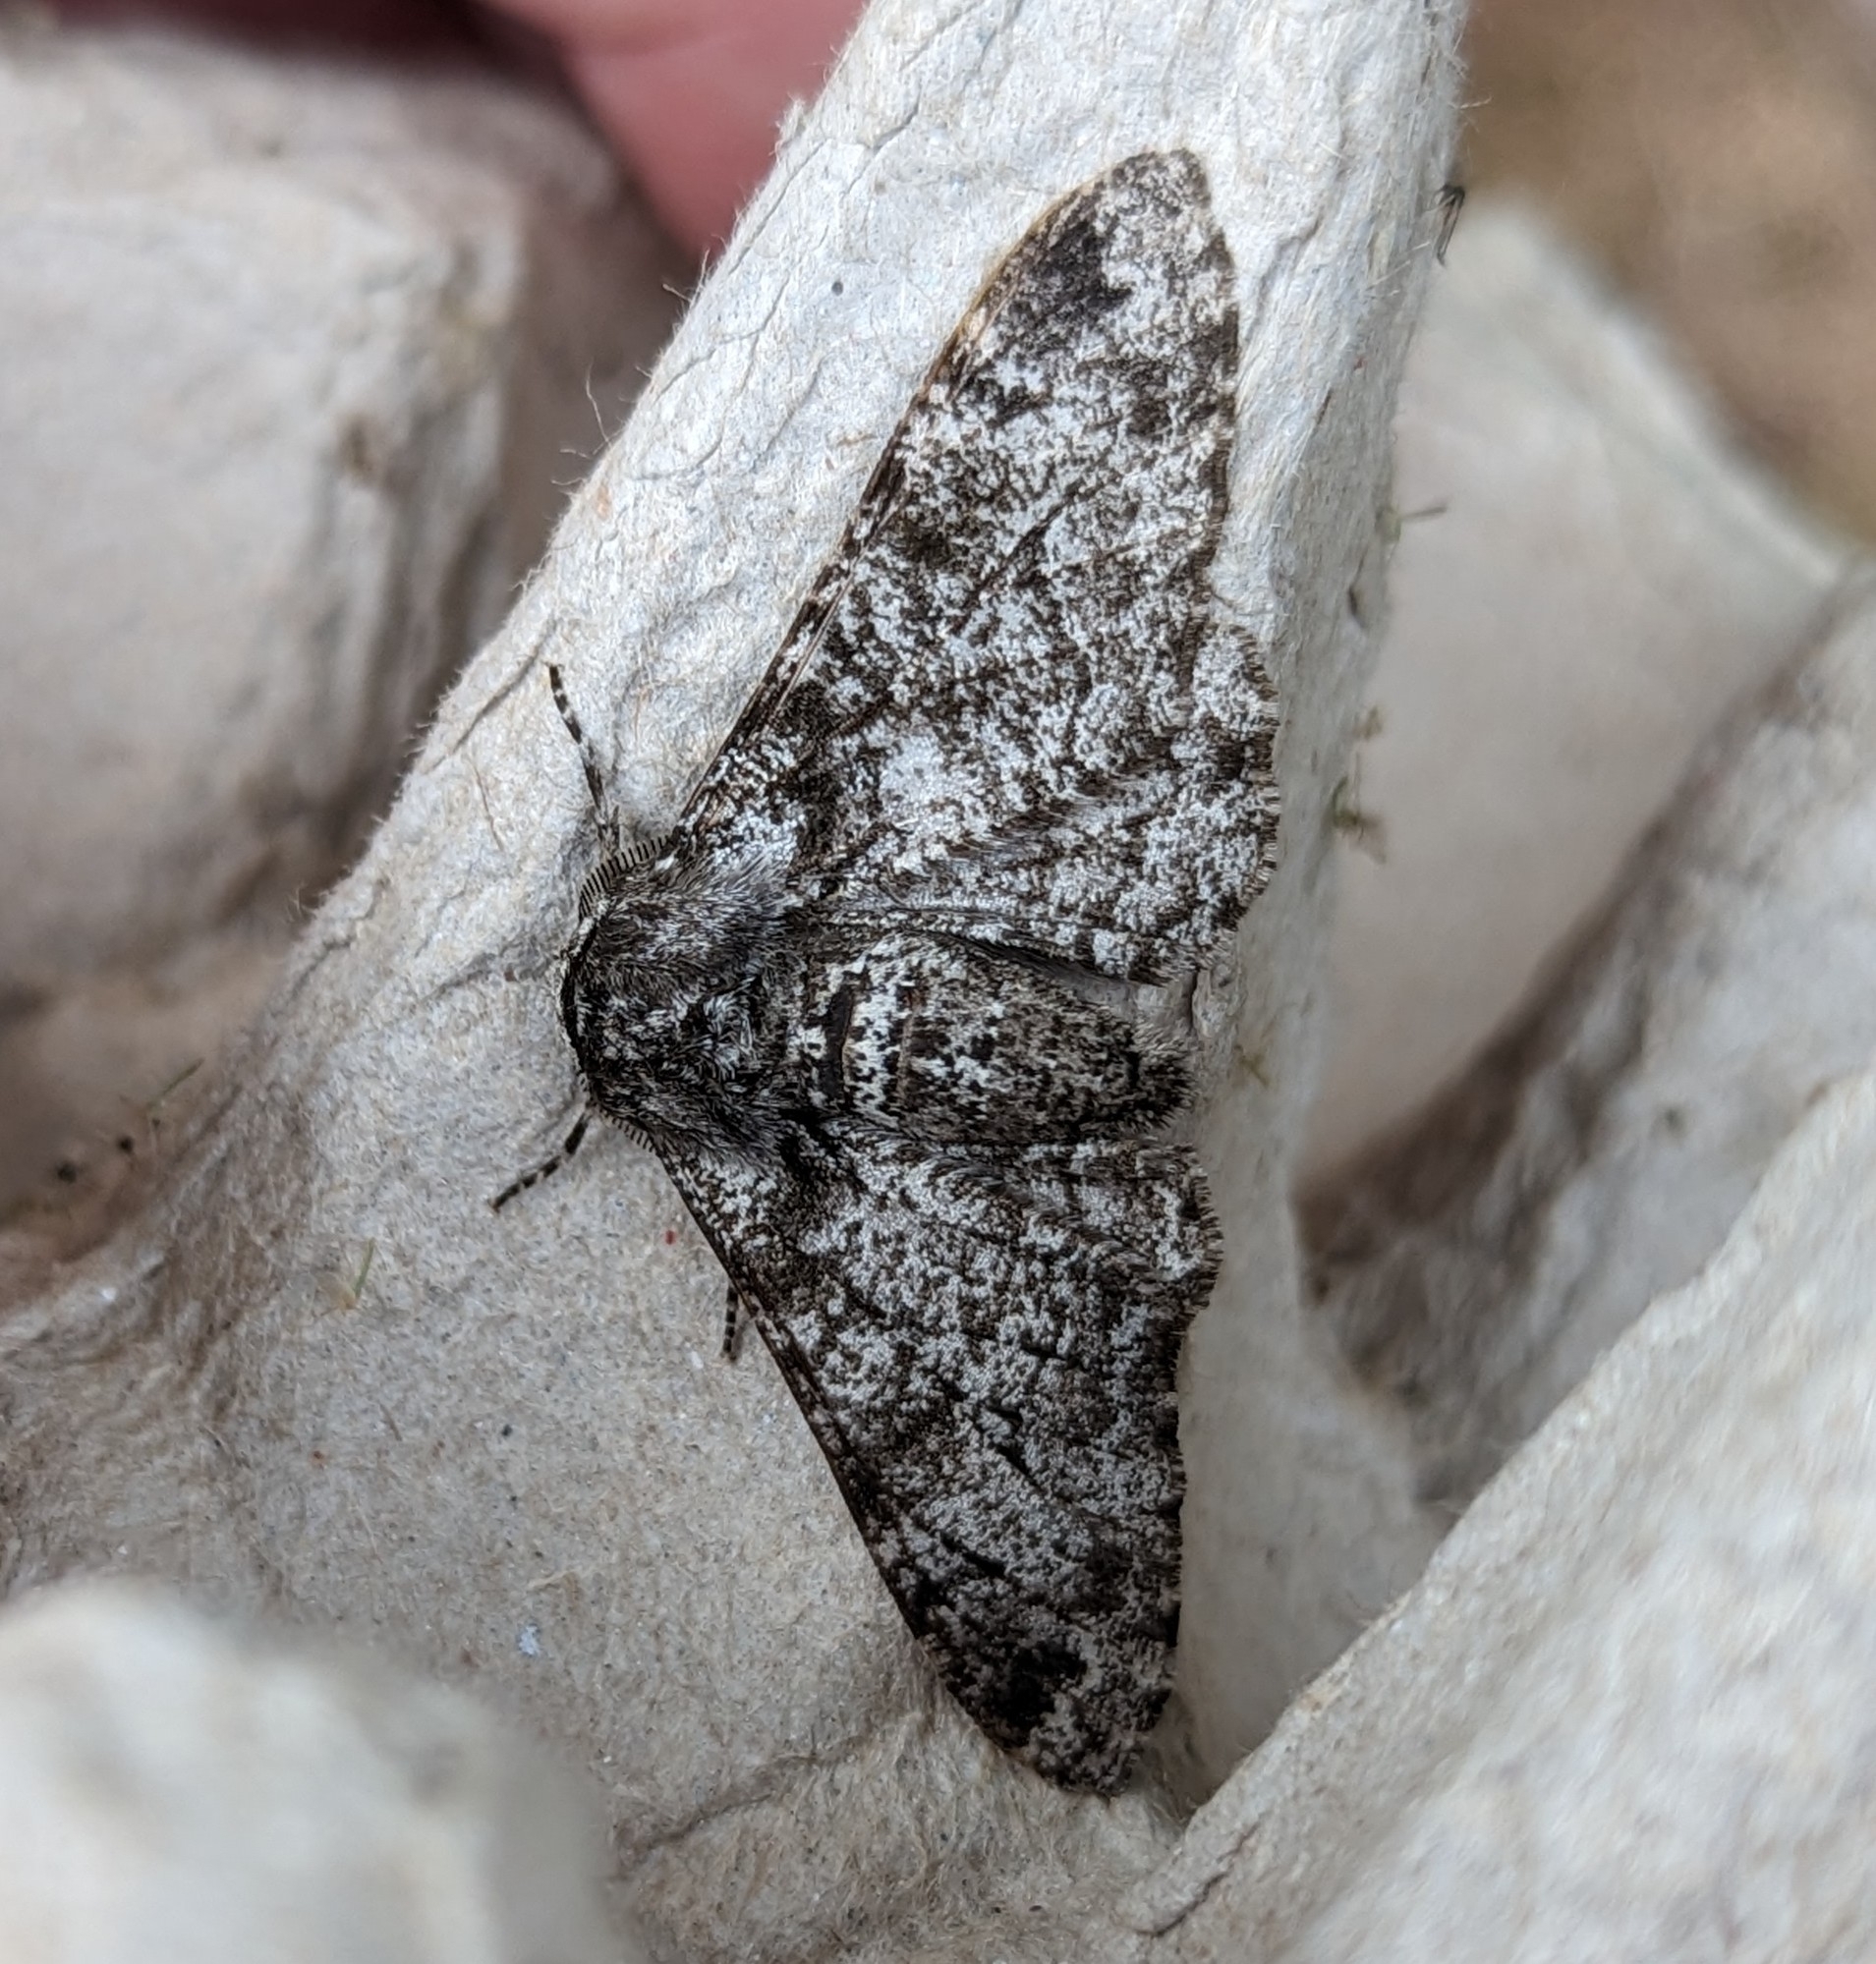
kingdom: Animalia
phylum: Arthropoda
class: Insecta
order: Lepidoptera
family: Geometridae
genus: Biston
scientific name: Biston betularia
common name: Peppered moth
